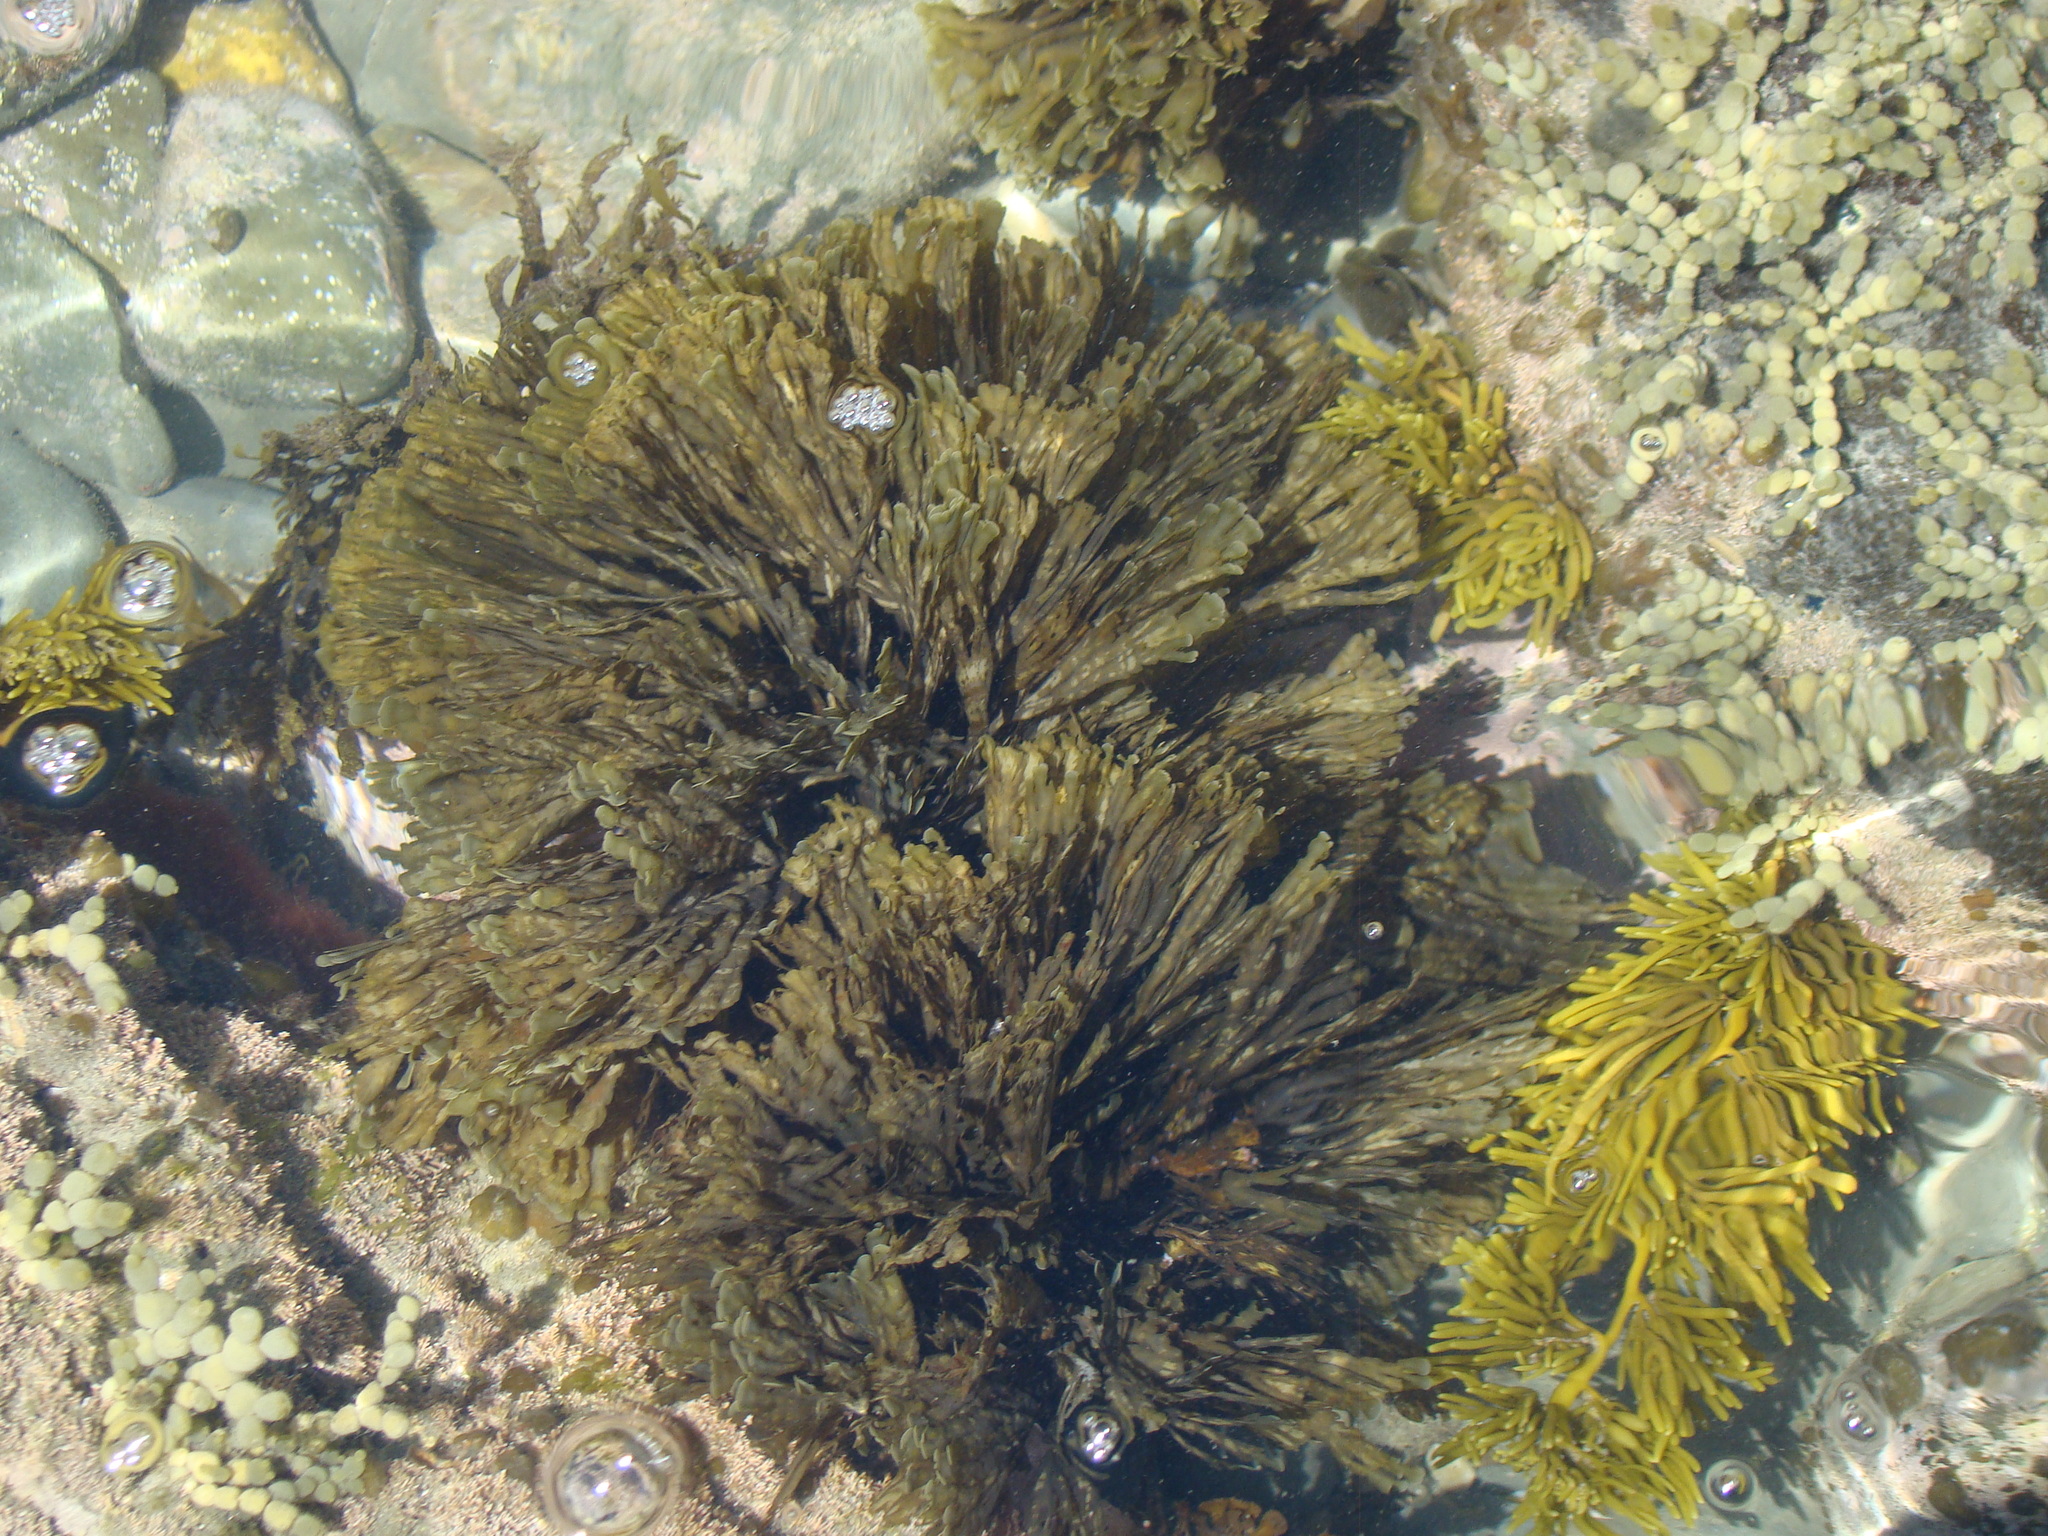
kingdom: Chromista
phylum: Ochrophyta
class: Phaeophyceae
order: Dictyotales
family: Dictyotaceae
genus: Zonaria
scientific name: Zonaria turneriana
